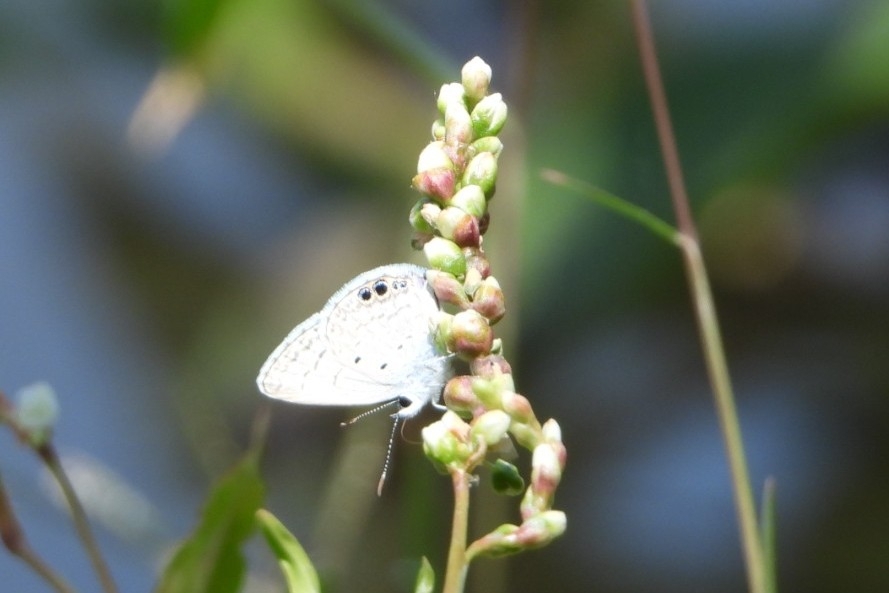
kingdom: Animalia
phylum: Arthropoda
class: Insecta
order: Lepidoptera
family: Lycaenidae
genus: Hemiargus
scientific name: Hemiargus ceraunus
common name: Ceraunus blue
